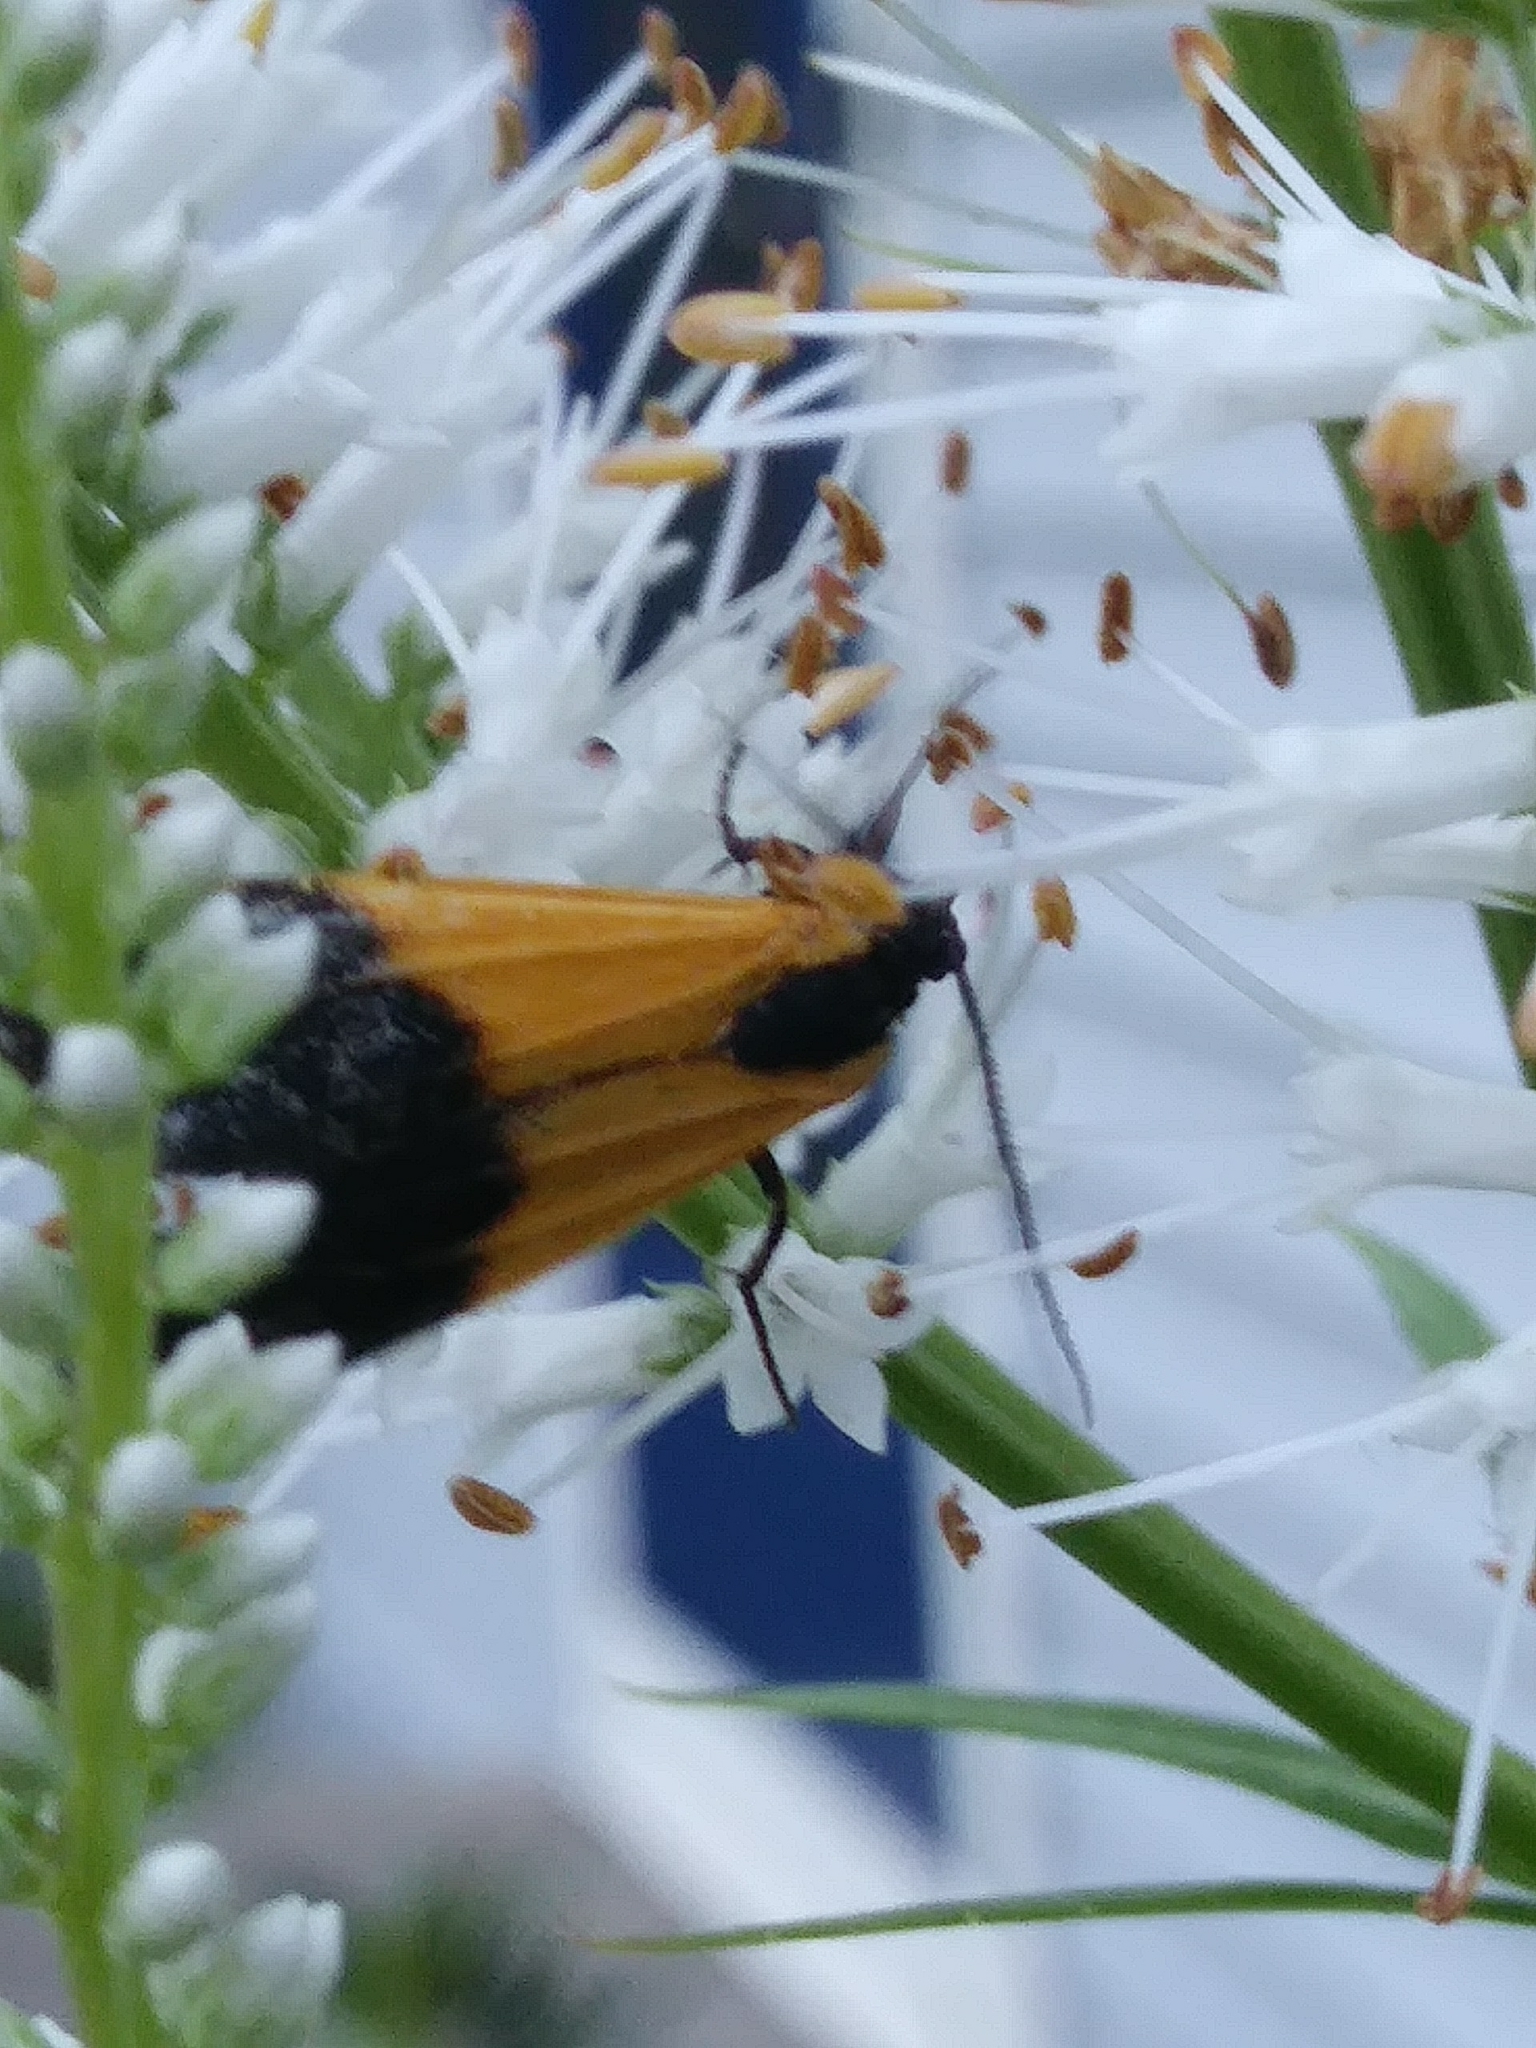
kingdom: Animalia
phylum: Arthropoda
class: Insecta
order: Lepidoptera
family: Erebidae
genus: Lycomorpha
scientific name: Lycomorpha pholus
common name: Black-and-yellow lichen moth
